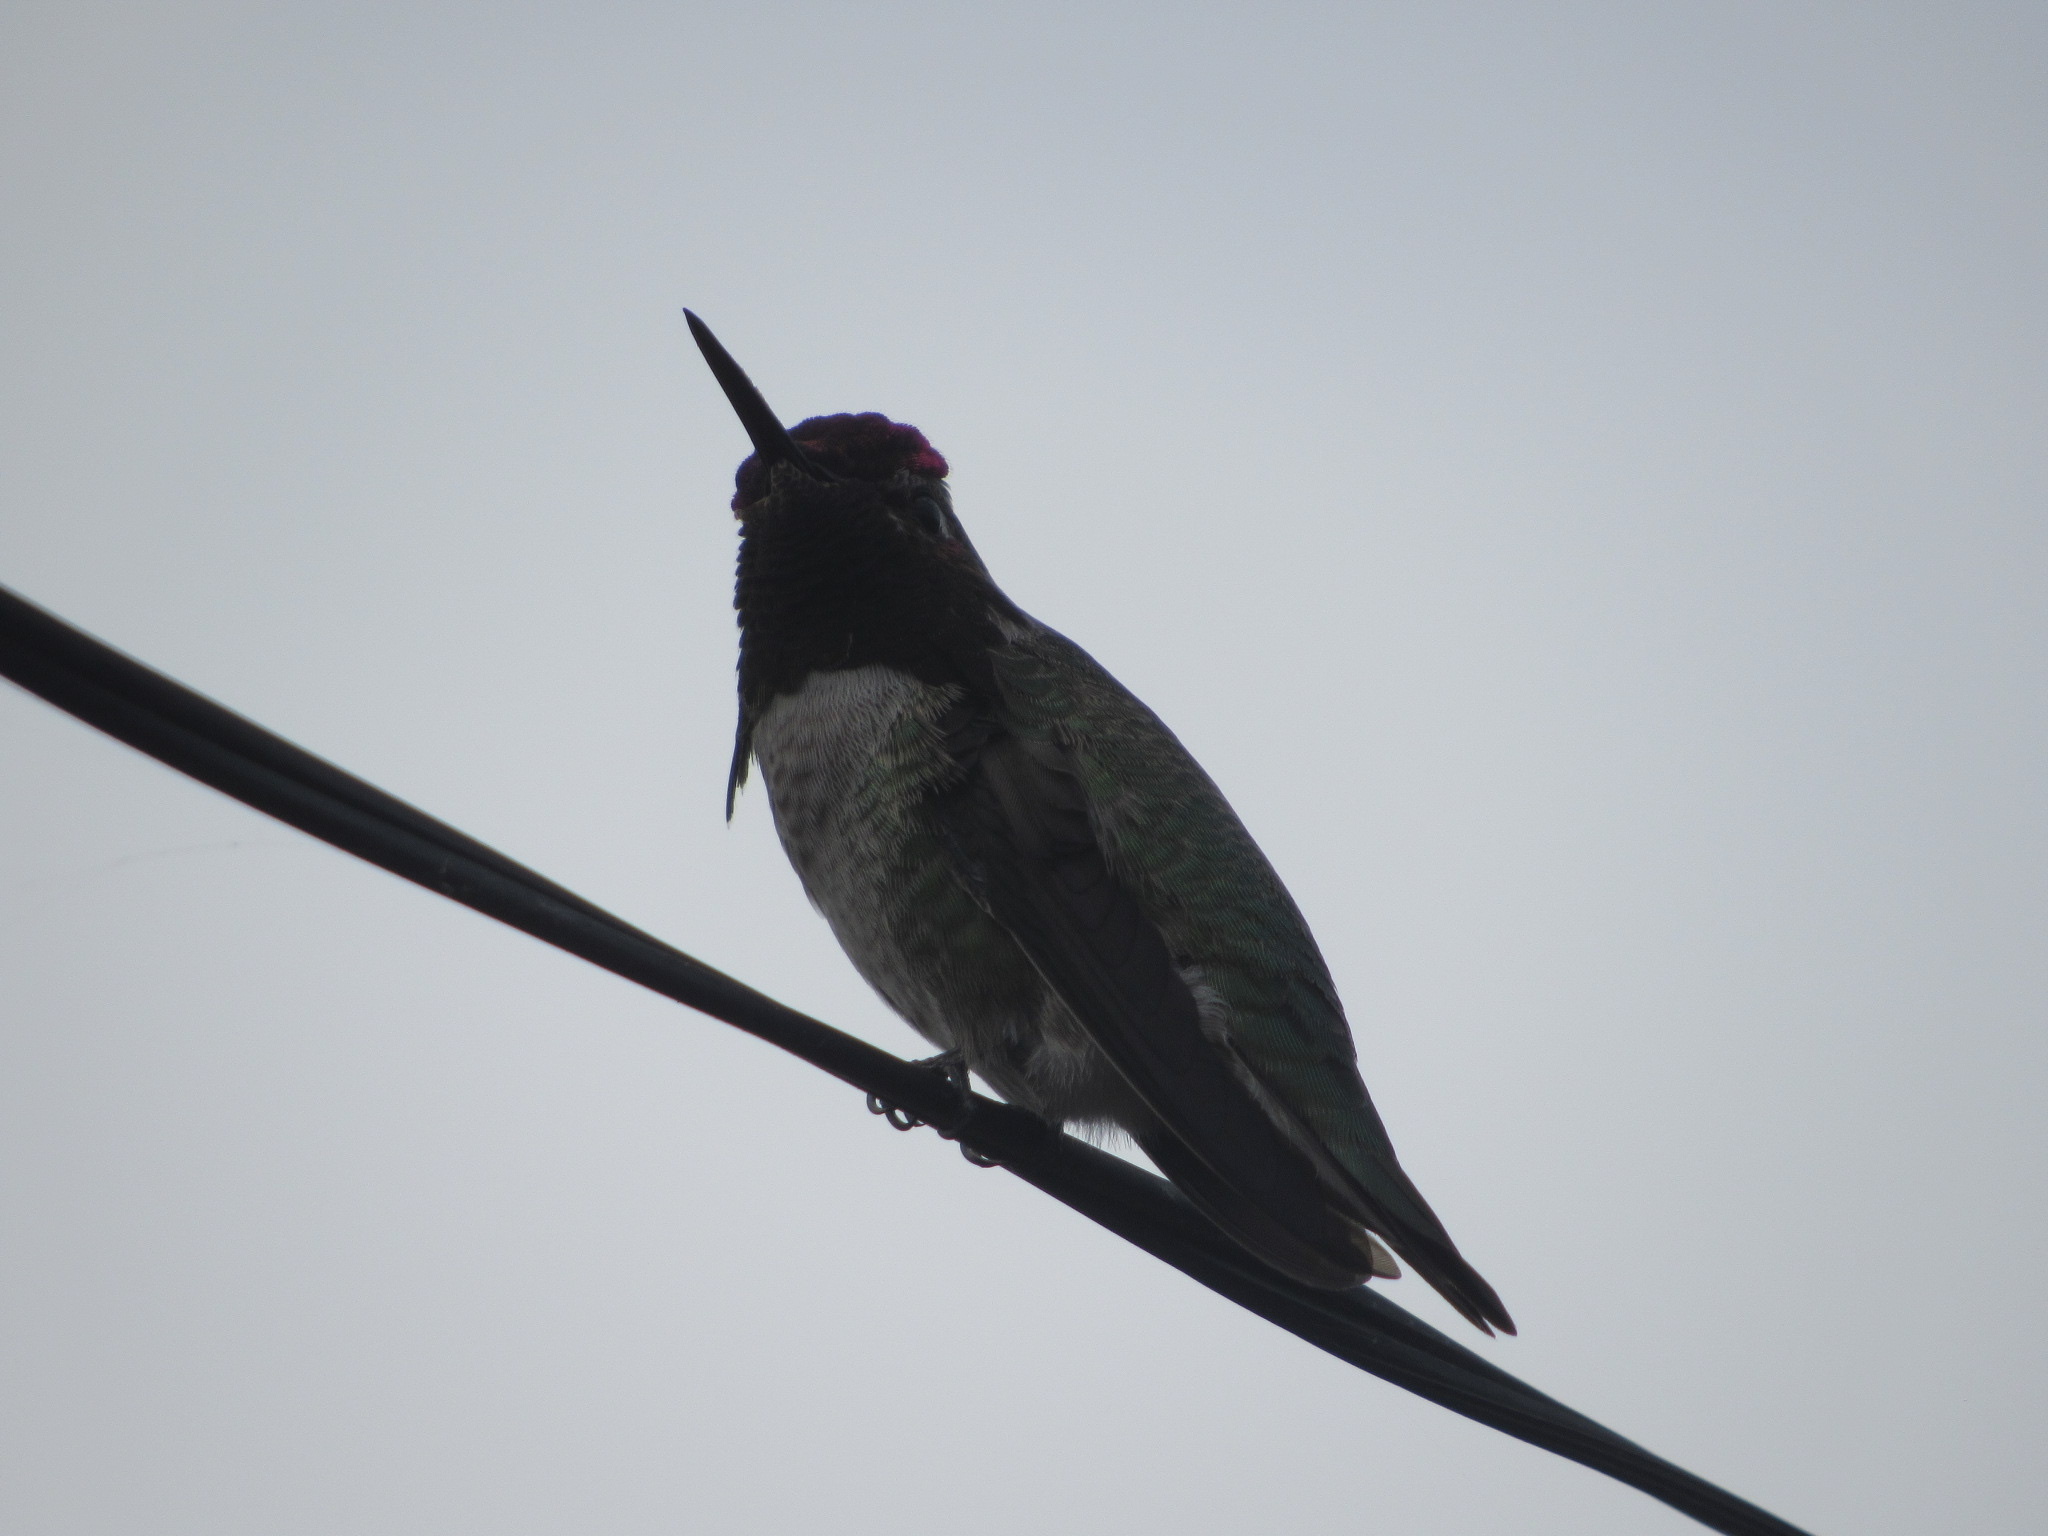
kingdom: Animalia
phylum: Chordata
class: Aves
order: Apodiformes
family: Trochilidae
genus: Calypte
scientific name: Calypte anna
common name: Anna's hummingbird
